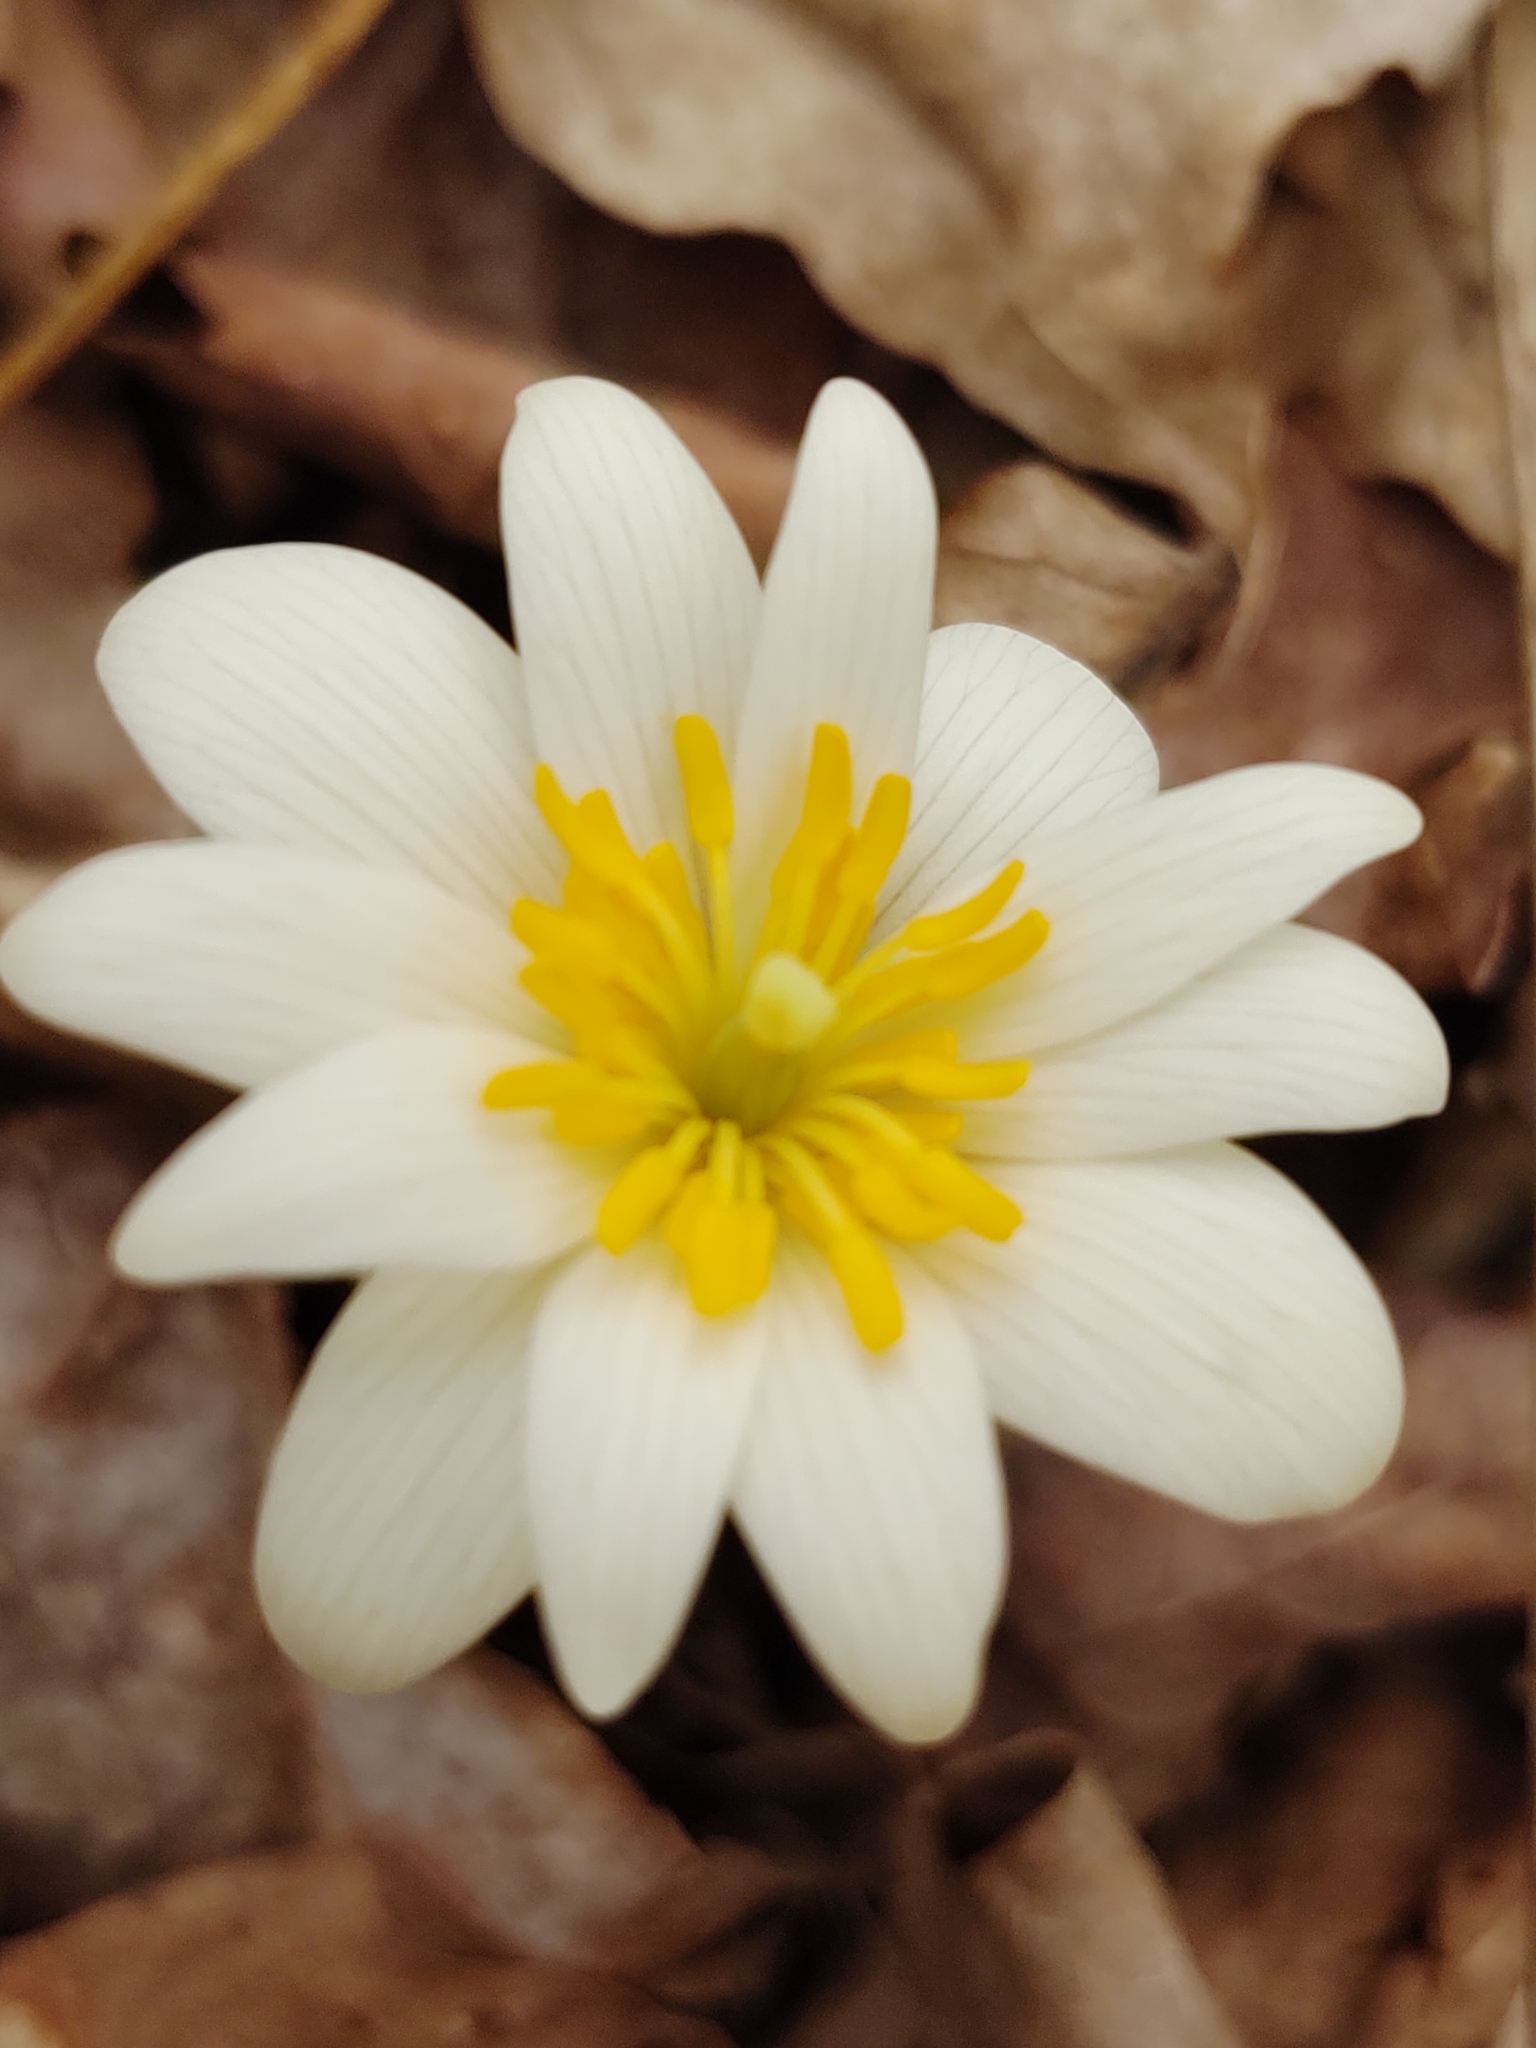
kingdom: Plantae
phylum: Tracheophyta
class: Magnoliopsida
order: Ranunculales
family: Papaveraceae
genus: Sanguinaria
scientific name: Sanguinaria canadensis
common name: Bloodroot
